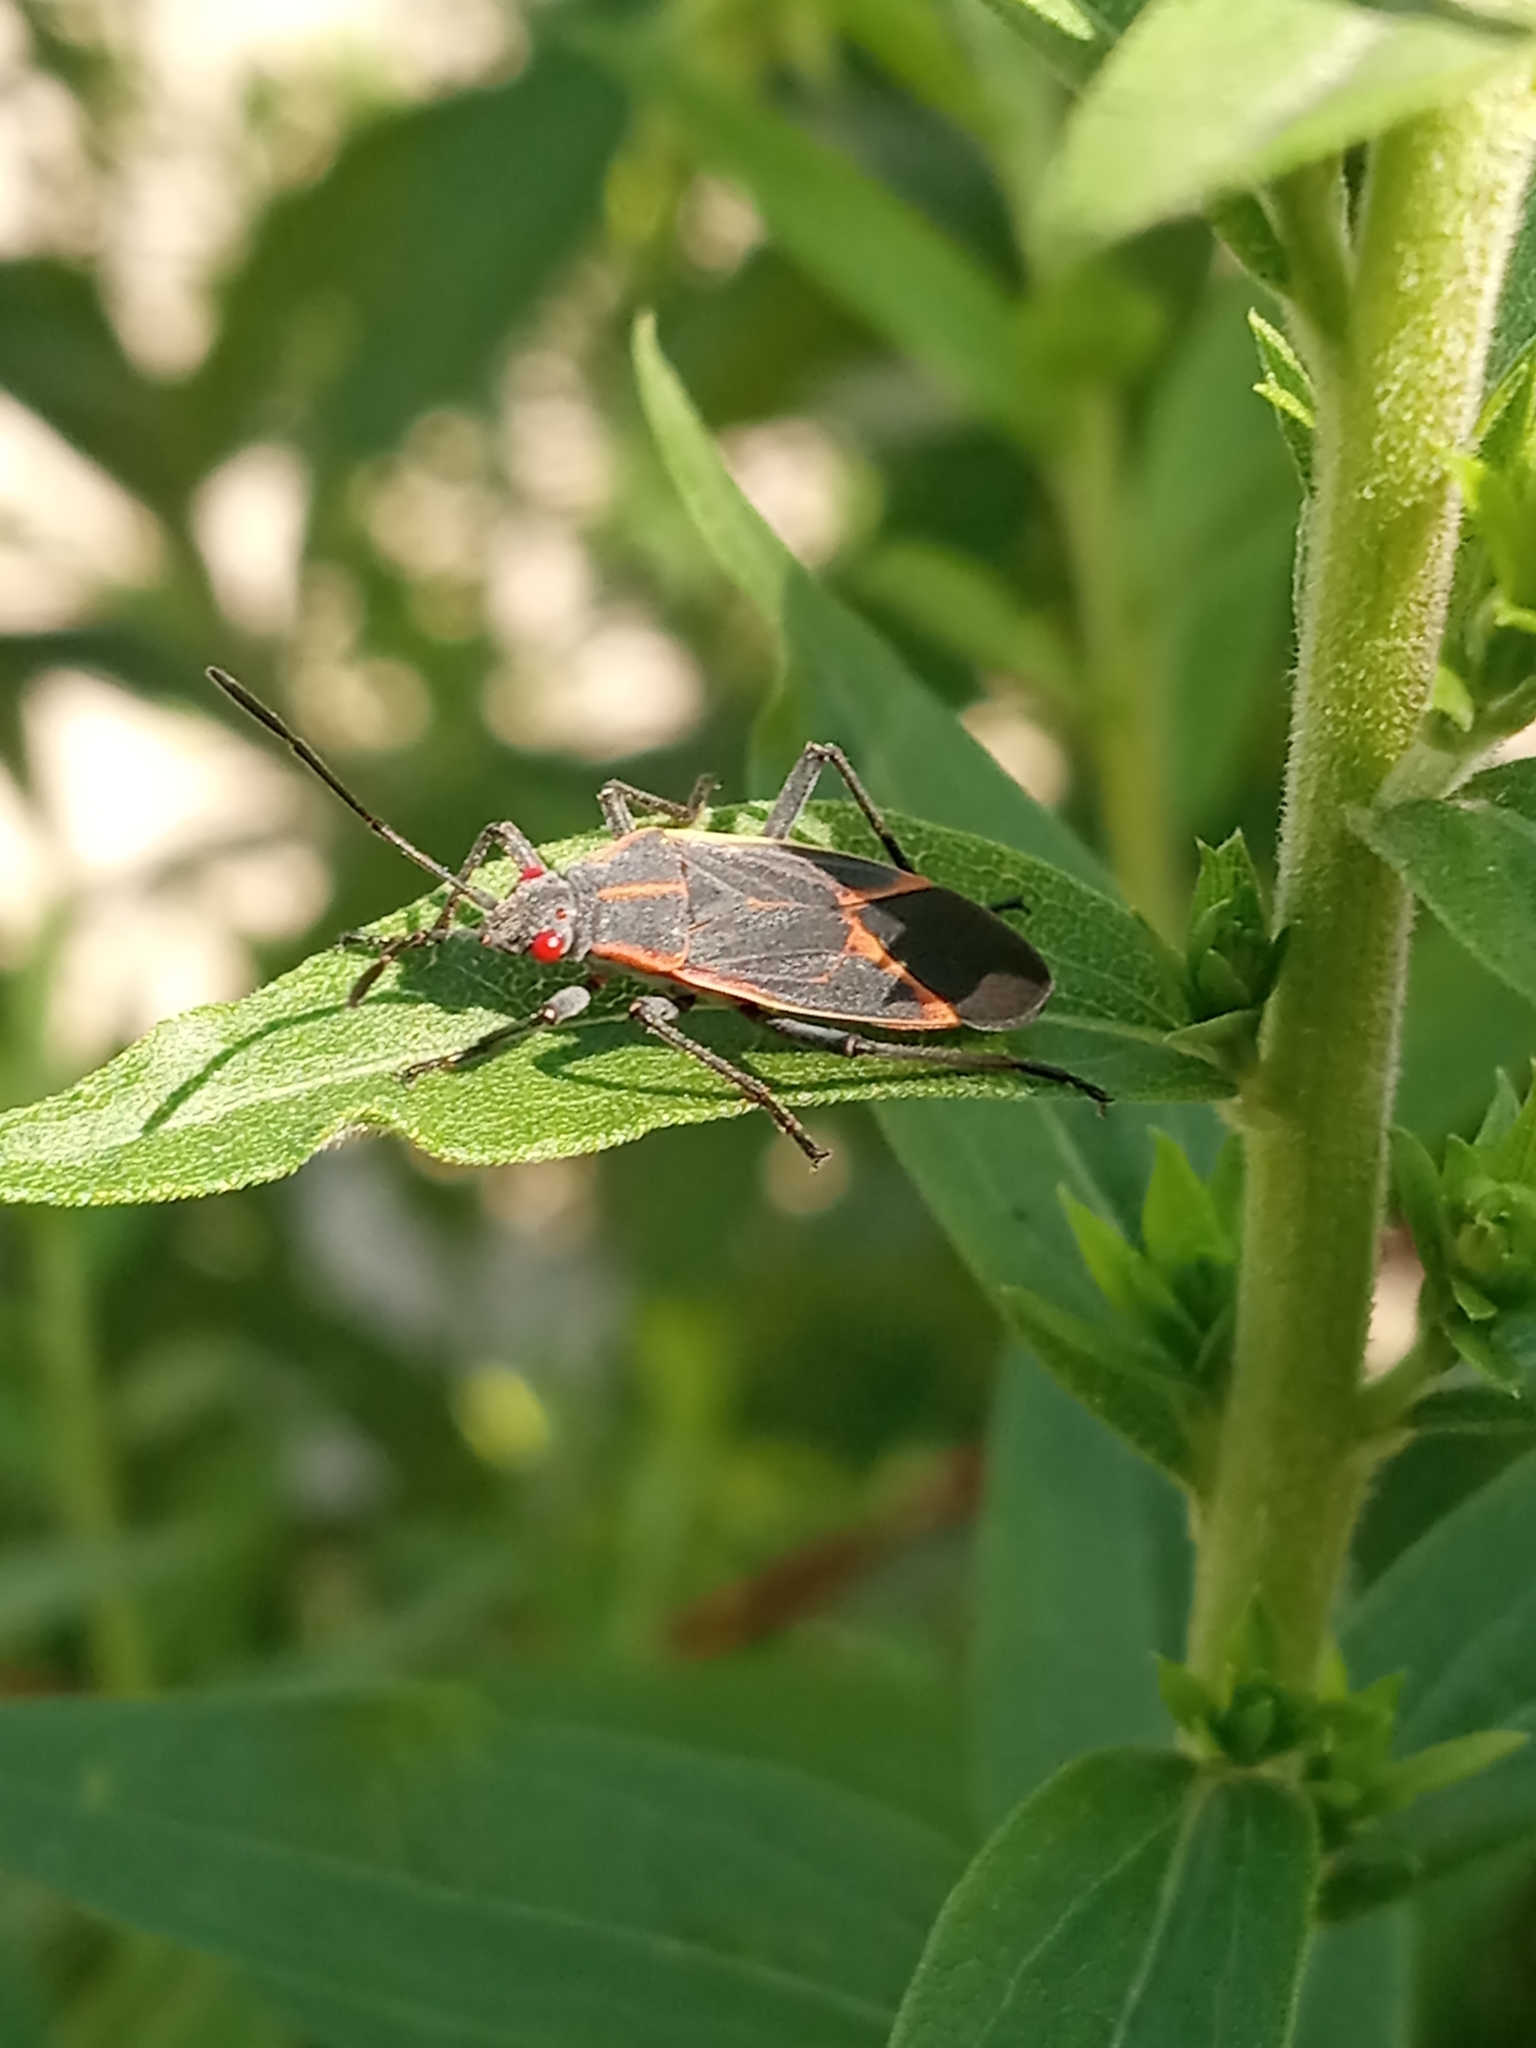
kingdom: Animalia
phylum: Arthropoda
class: Insecta
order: Hemiptera
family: Rhopalidae
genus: Boisea
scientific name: Boisea trivittata
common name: Boxelder bug
